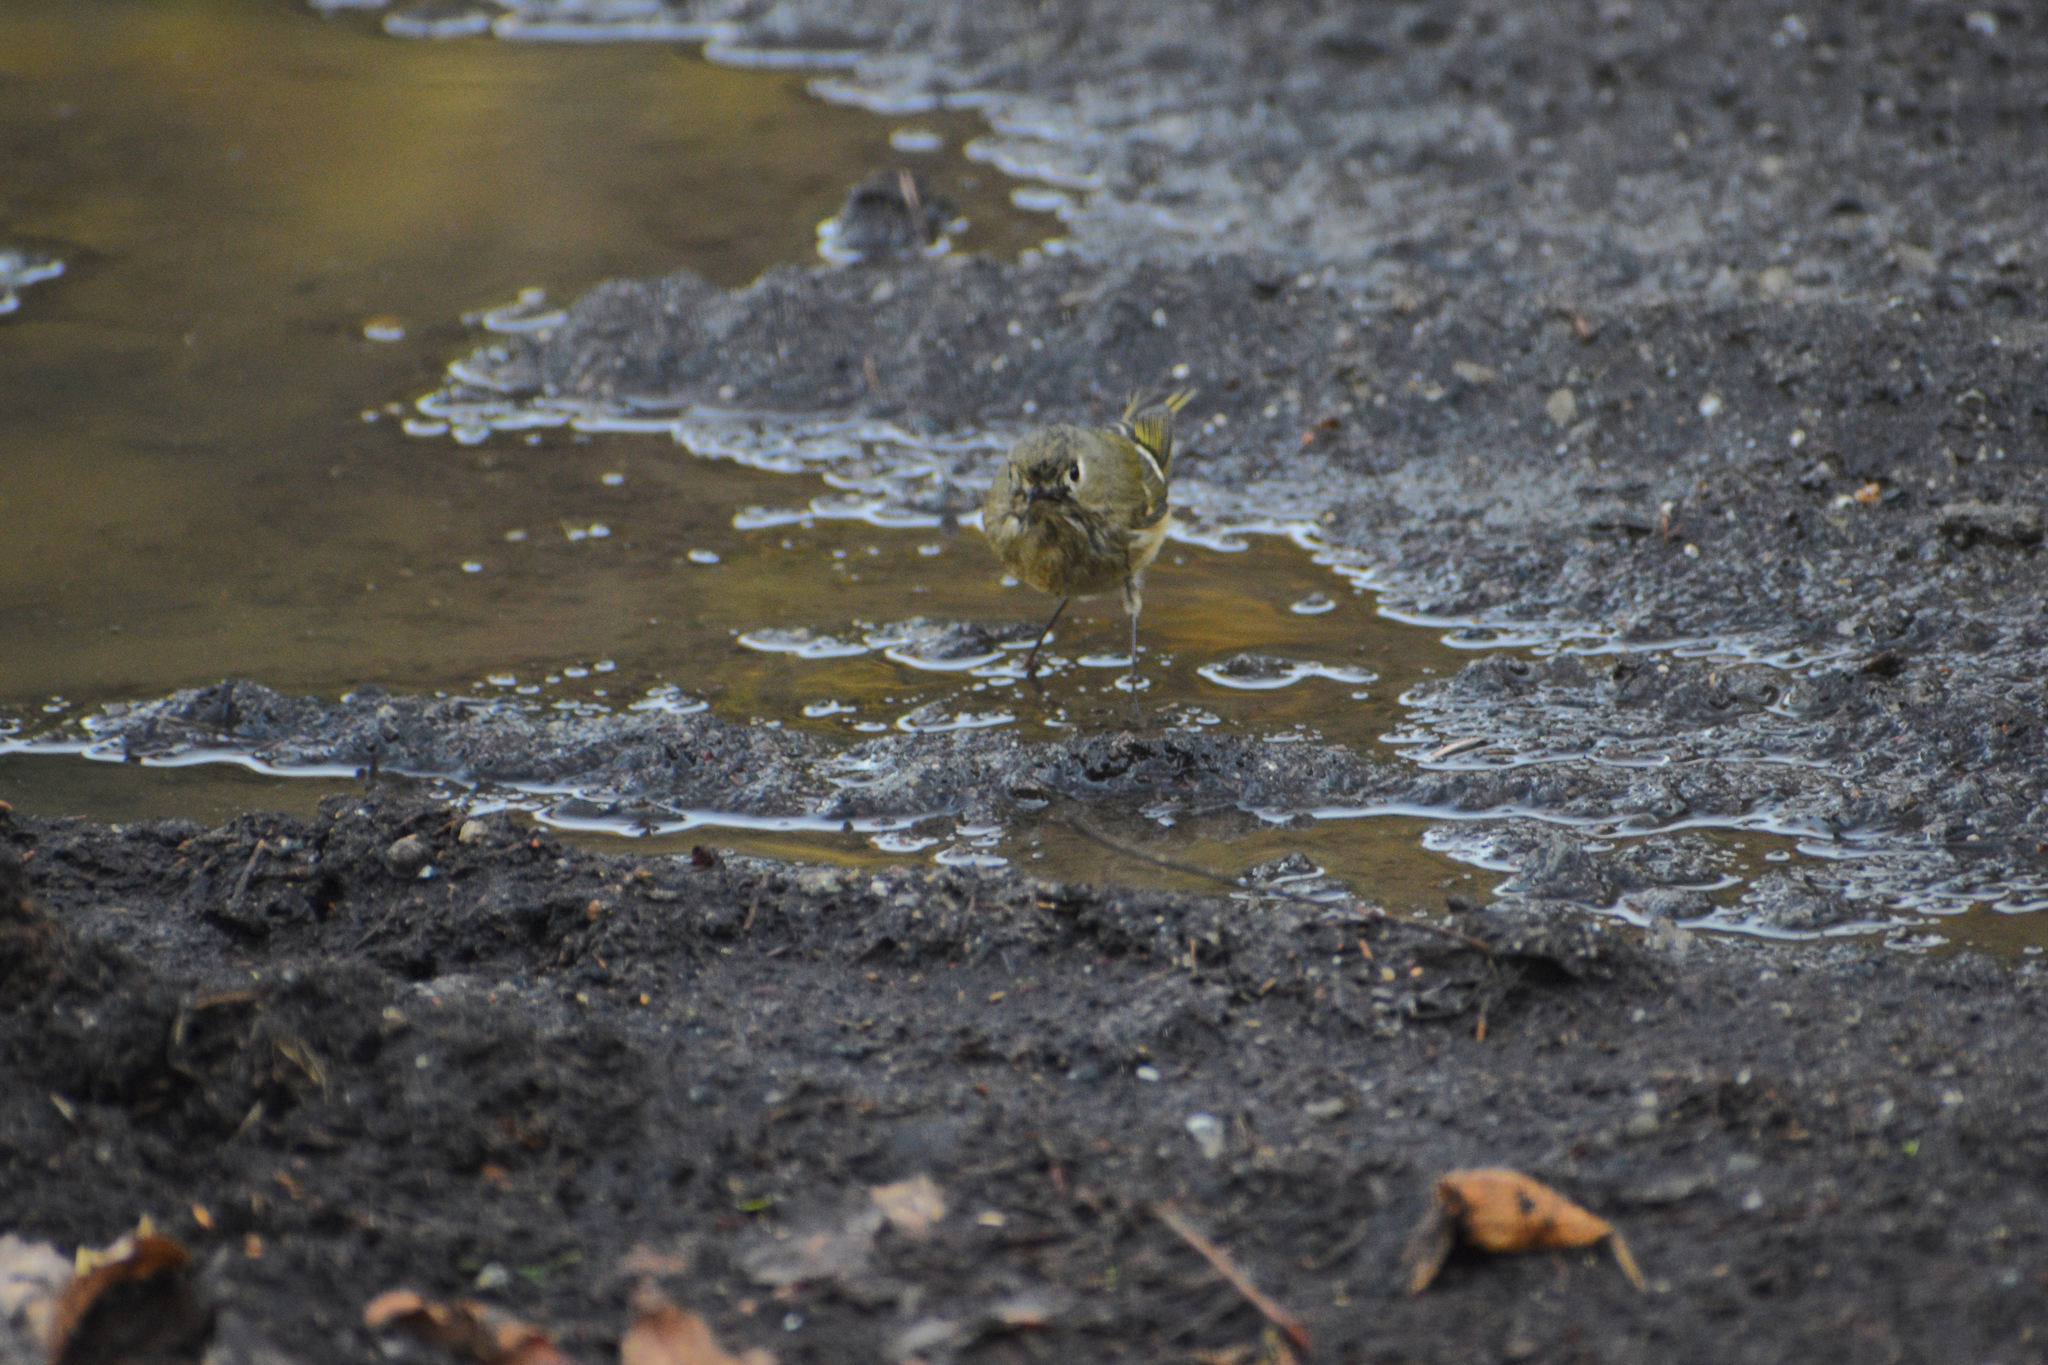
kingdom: Animalia
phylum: Chordata
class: Aves
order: Passeriformes
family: Regulidae
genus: Regulus
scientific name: Regulus calendula
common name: Ruby-crowned kinglet
